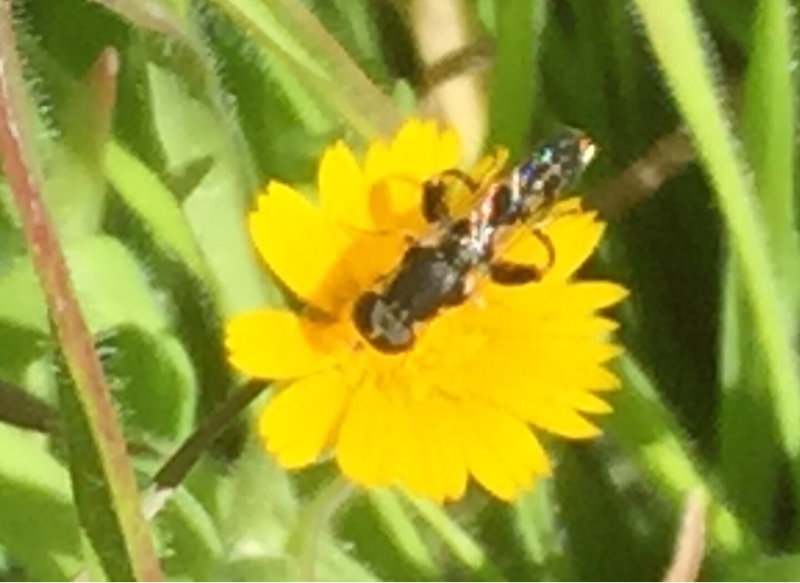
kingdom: Animalia
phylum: Arthropoda
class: Insecta
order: Diptera
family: Syrphidae
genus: Syritta
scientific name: Syritta pipiens
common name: Hover fly
